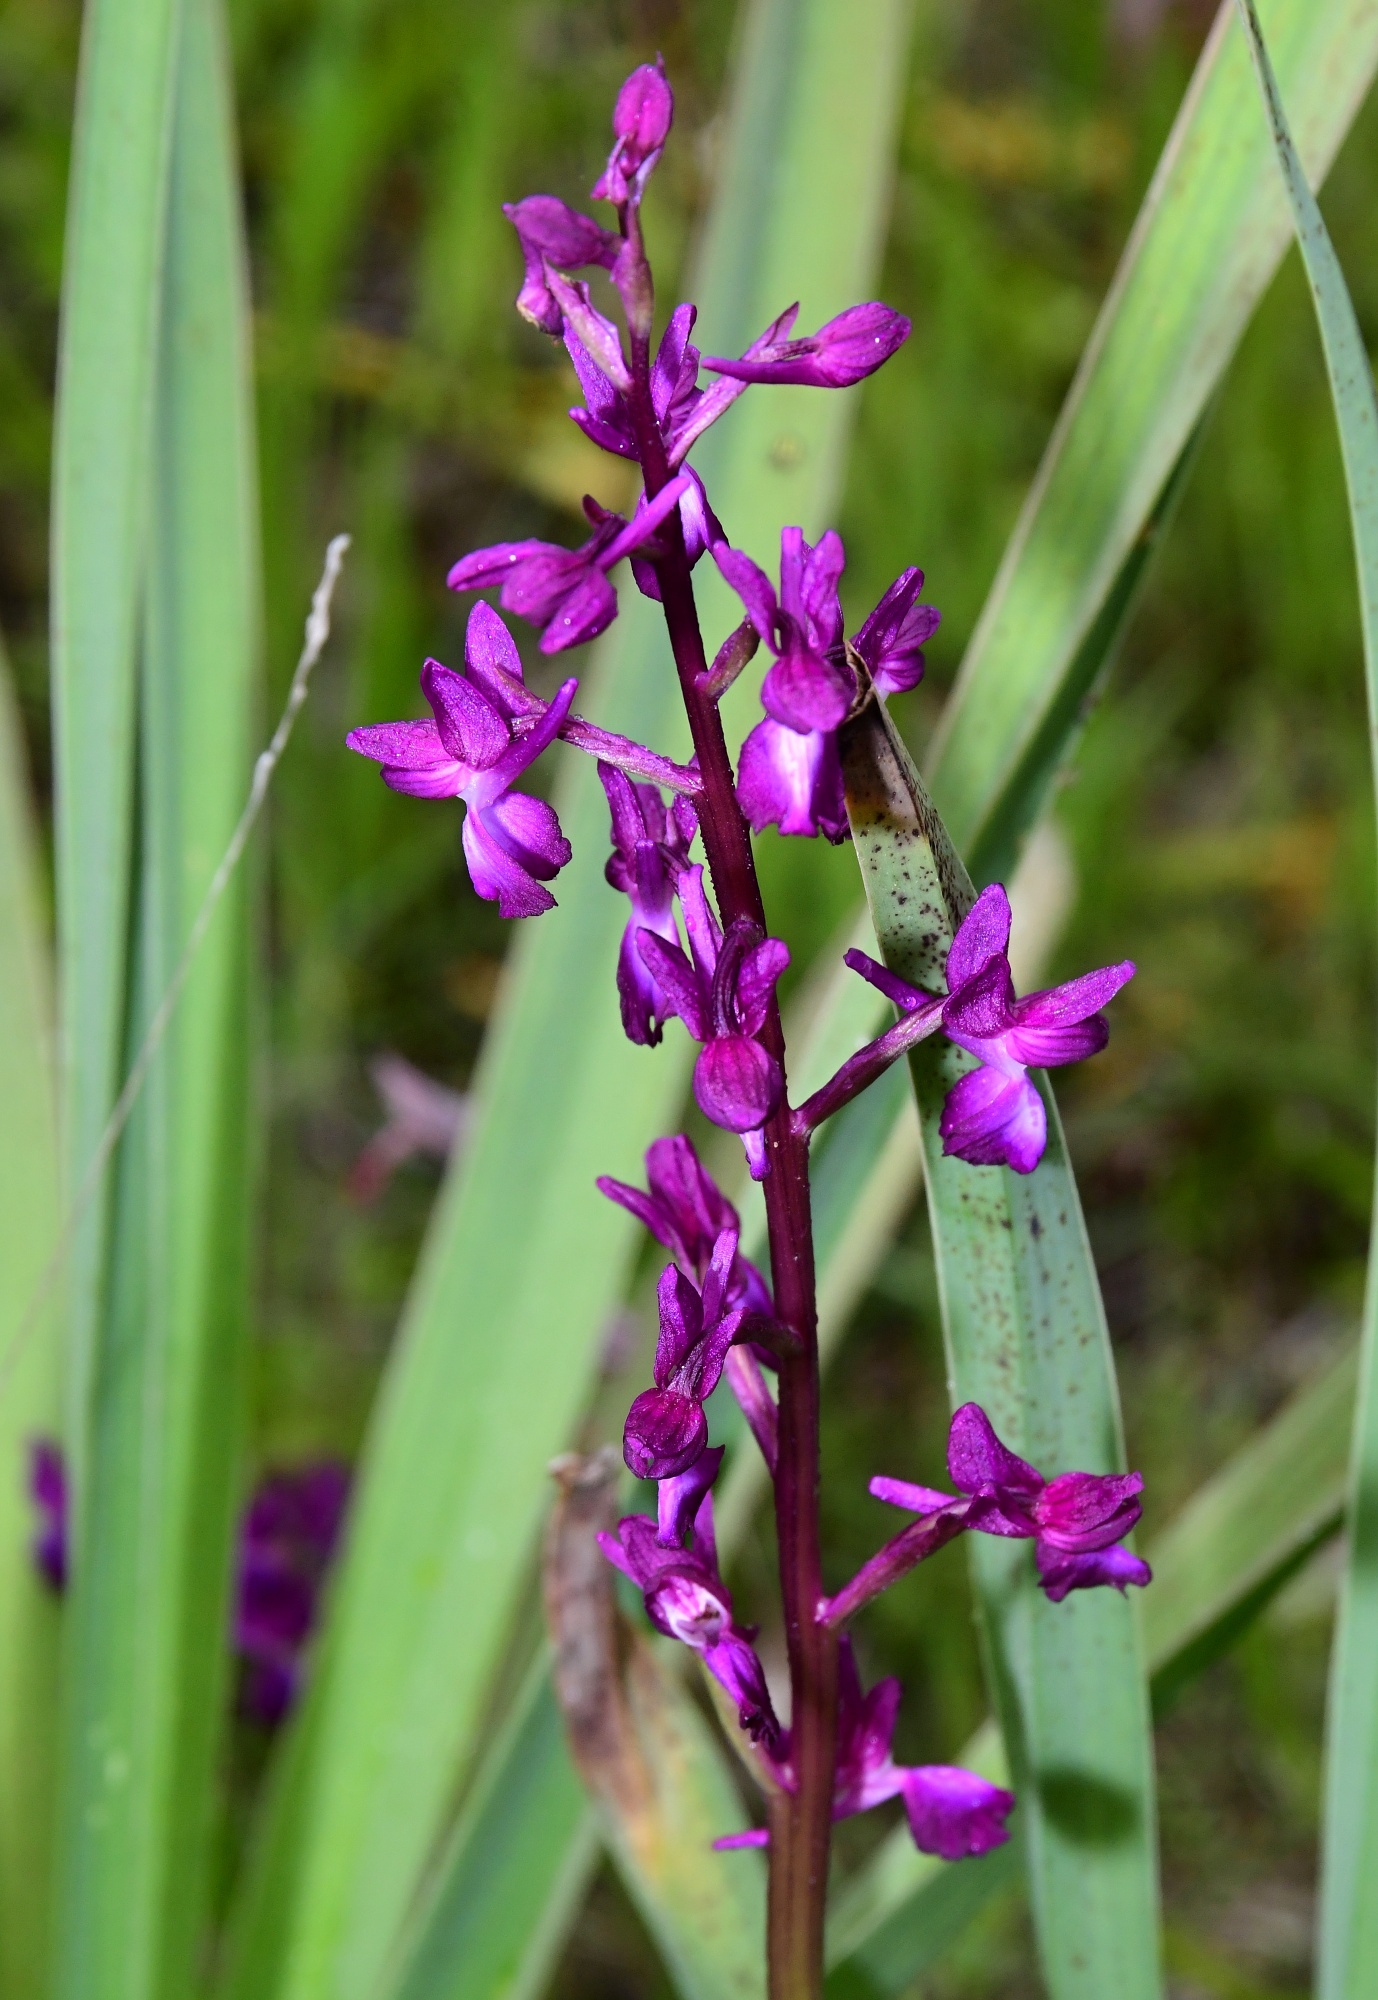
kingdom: Plantae
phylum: Tracheophyta
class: Liliopsida
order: Asparagales
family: Orchidaceae
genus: Anacamptis
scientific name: Anacamptis laxiflora
